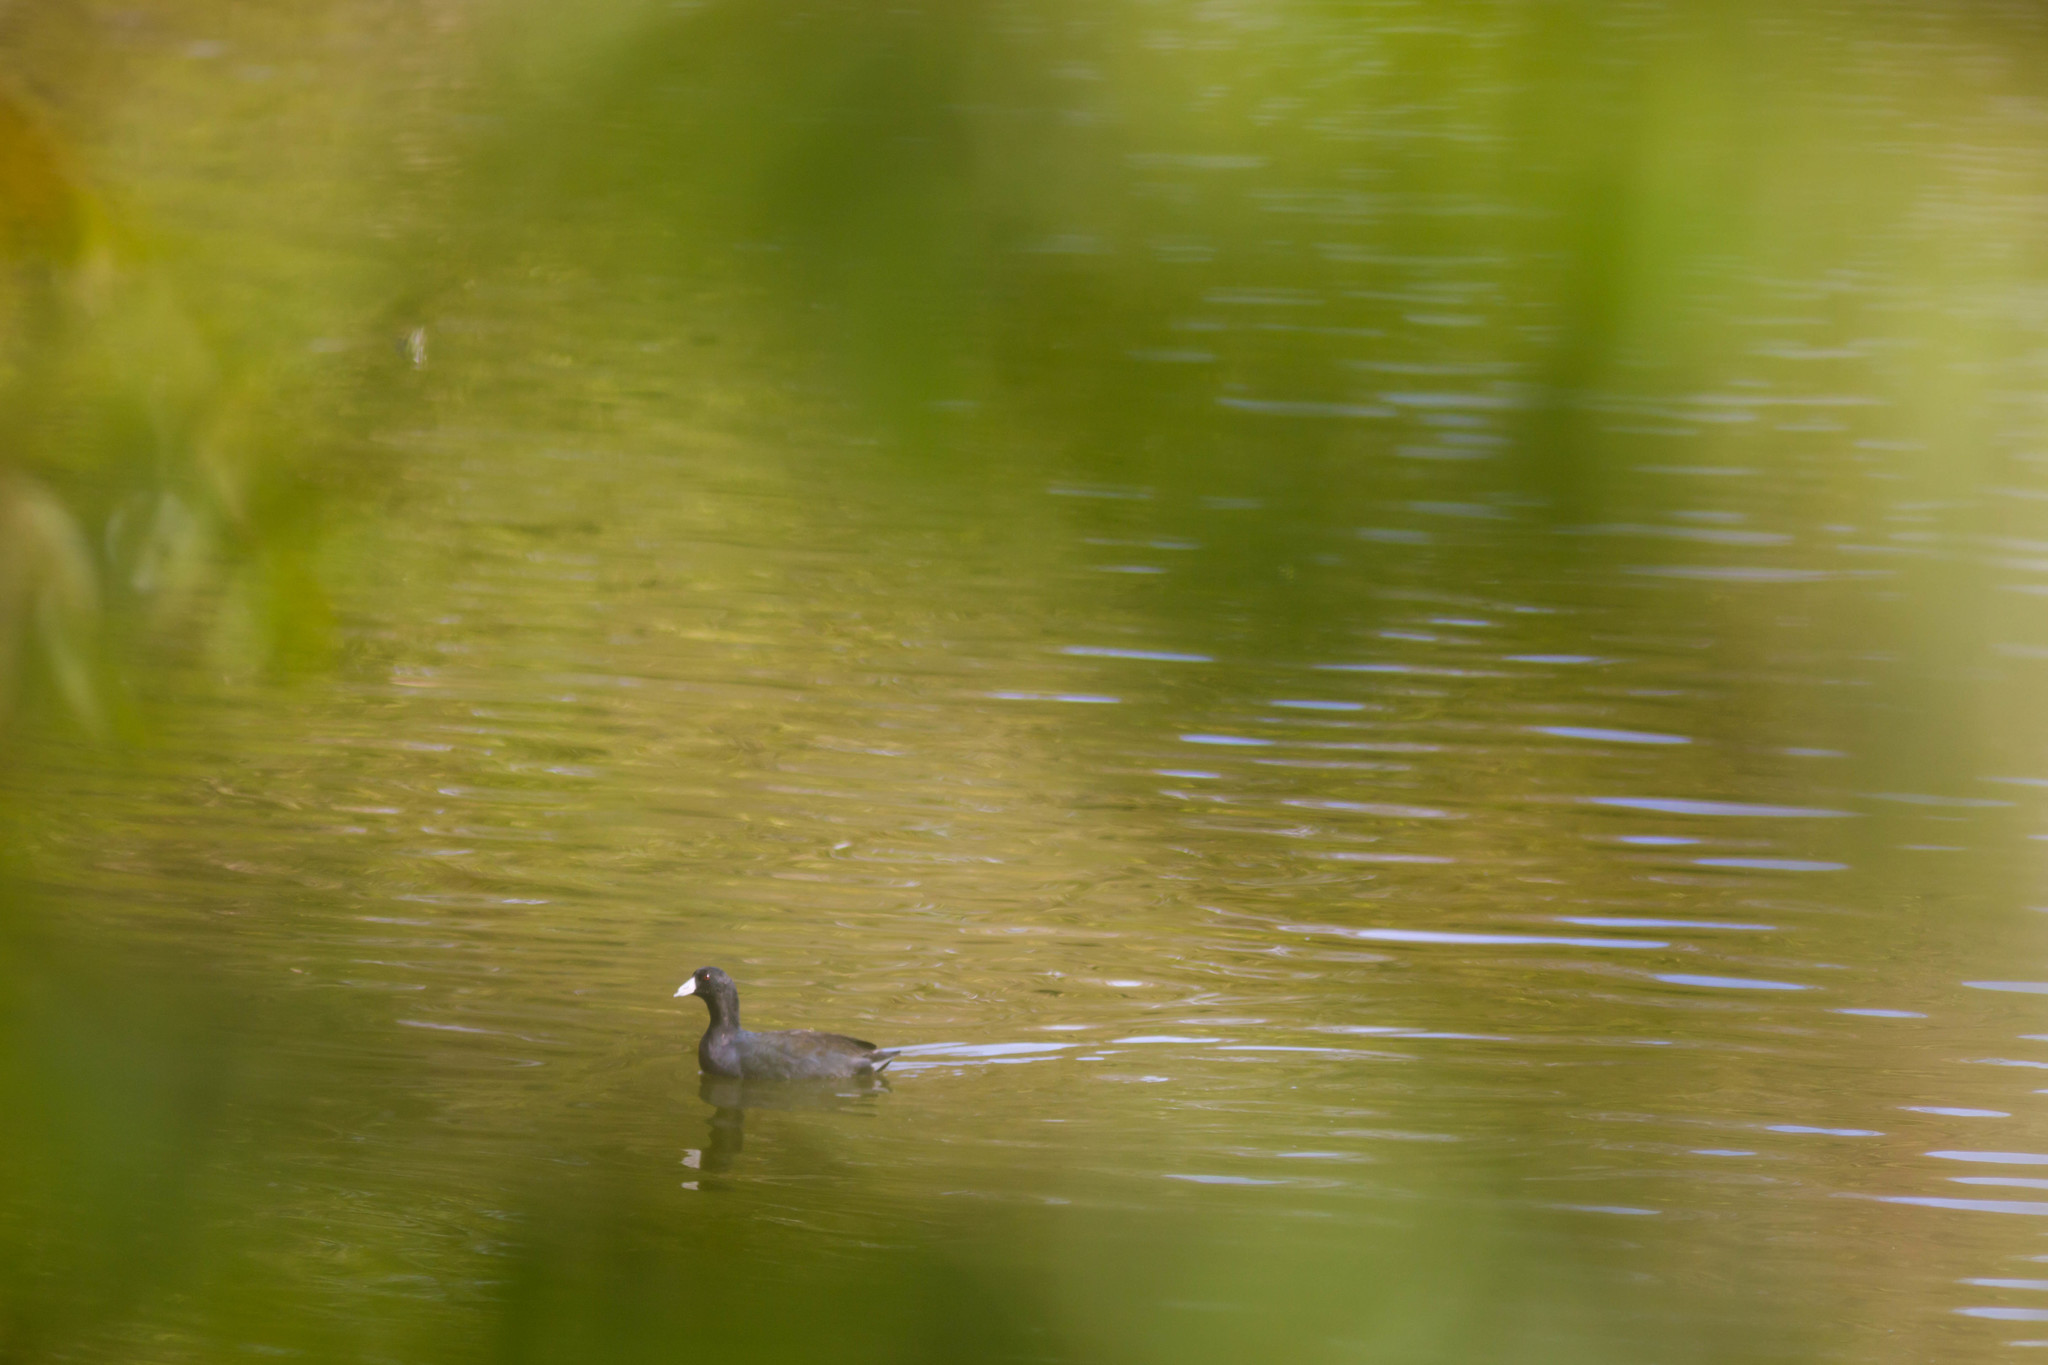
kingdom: Animalia
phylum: Chordata
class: Aves
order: Gruiformes
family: Rallidae
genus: Fulica
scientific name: Fulica americana
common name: American coot
